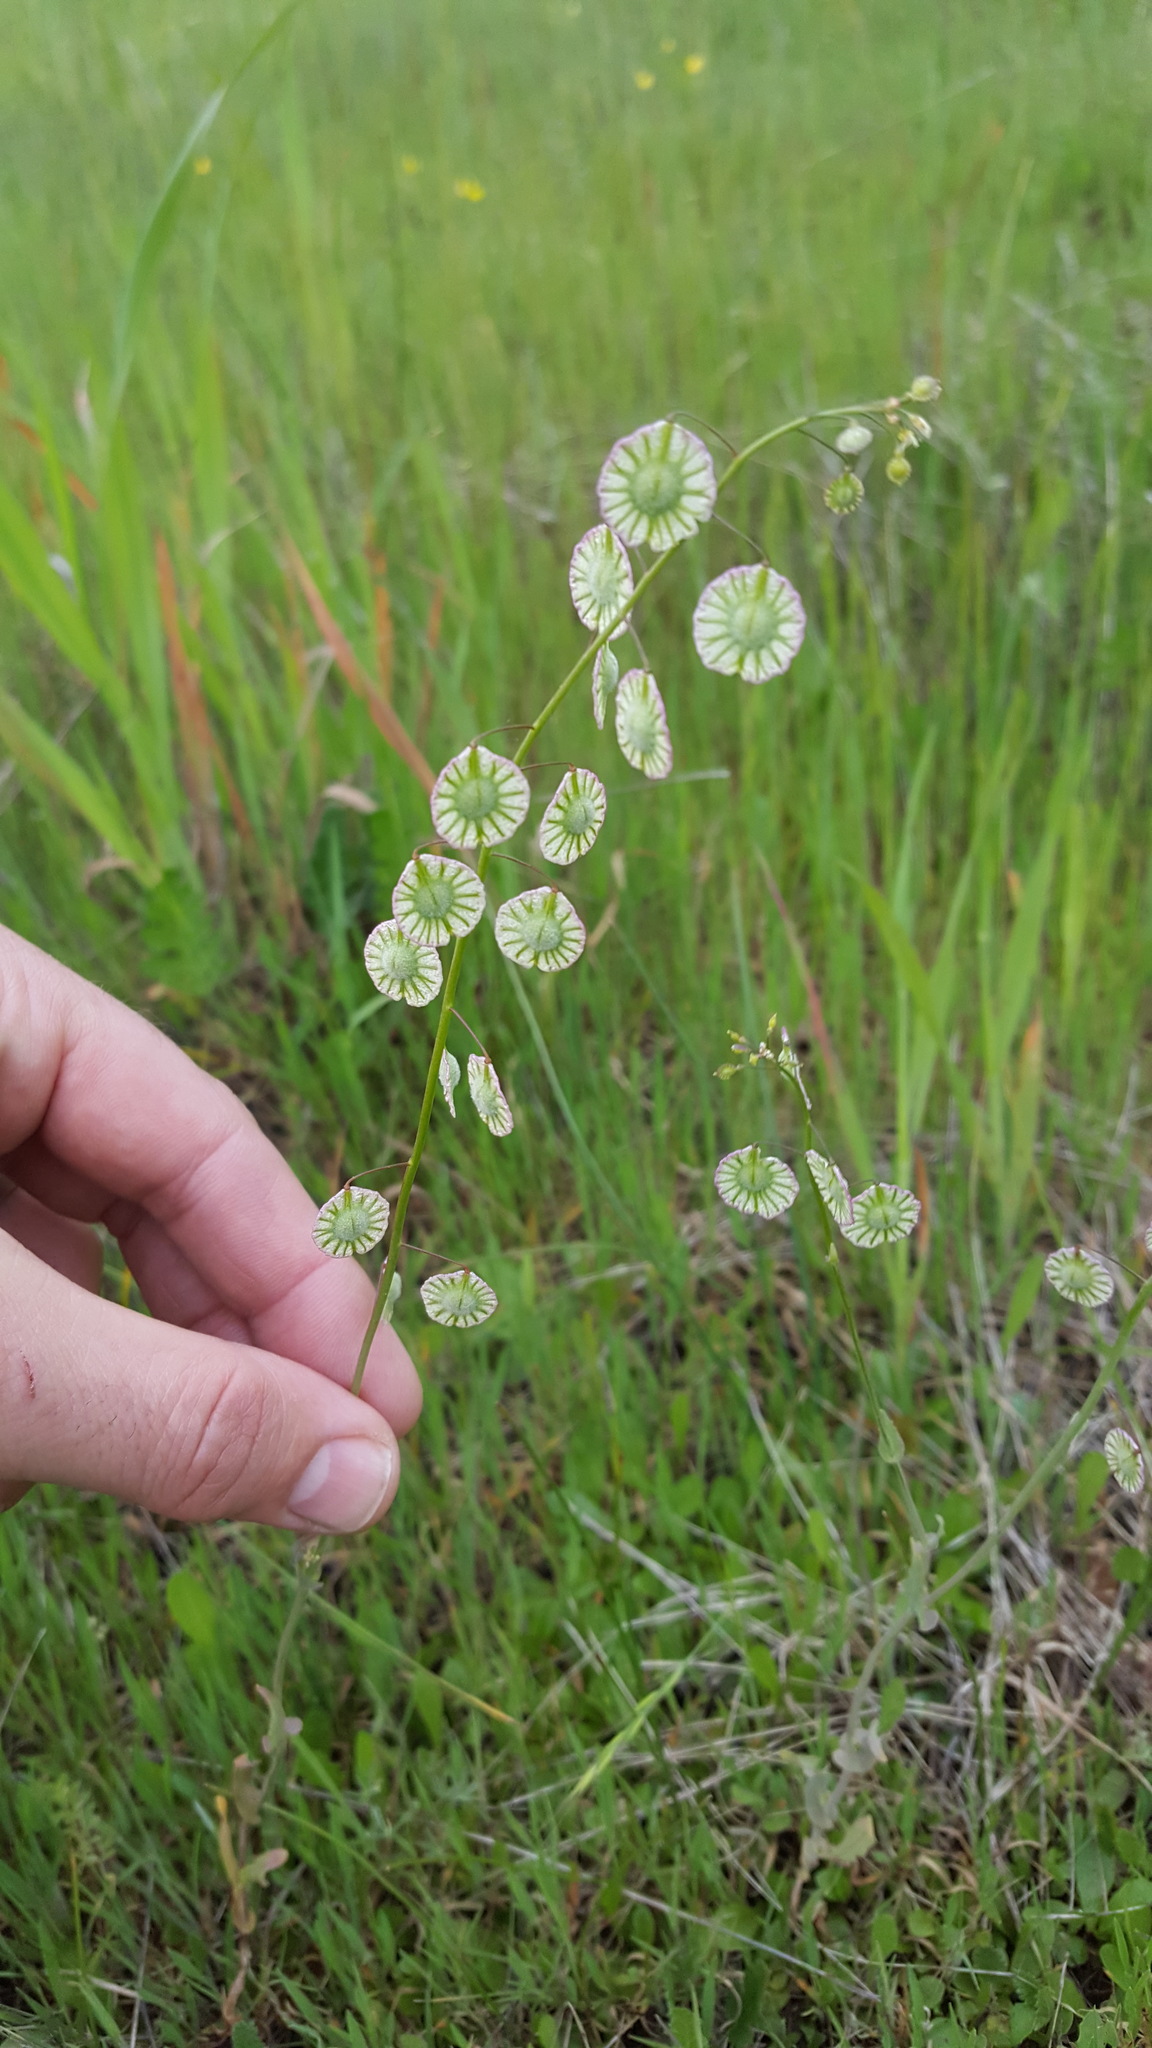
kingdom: Plantae
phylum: Tracheophyta
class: Magnoliopsida
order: Brassicales
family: Brassicaceae
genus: Thysanocarpus
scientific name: Thysanocarpus radians
